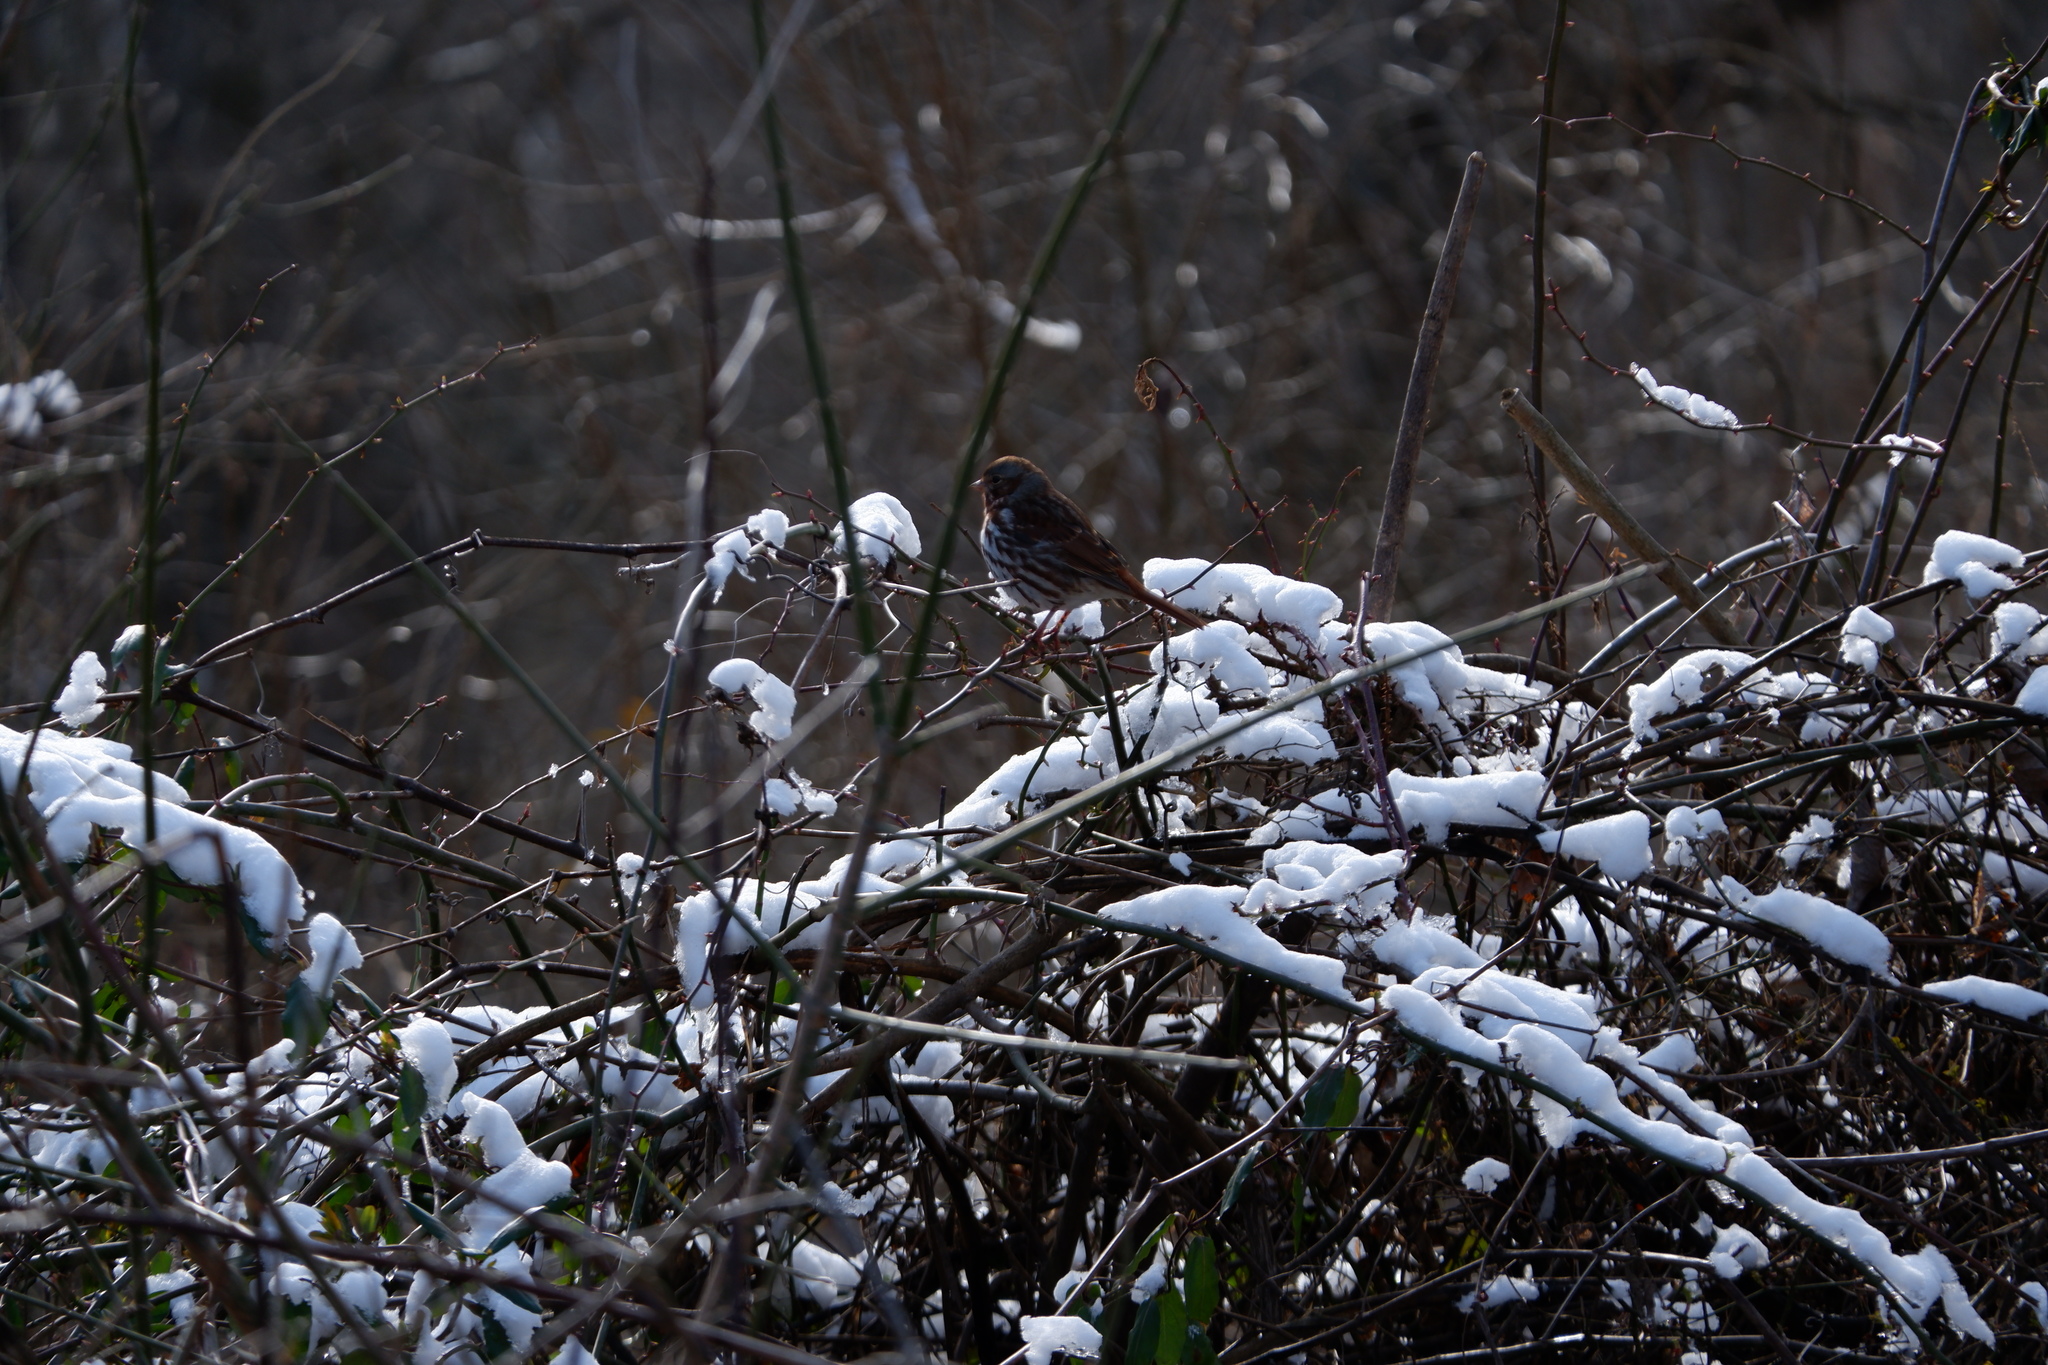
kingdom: Animalia
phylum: Chordata
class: Aves
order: Passeriformes
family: Passerellidae
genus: Melospiza
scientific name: Melospiza melodia
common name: Song sparrow
